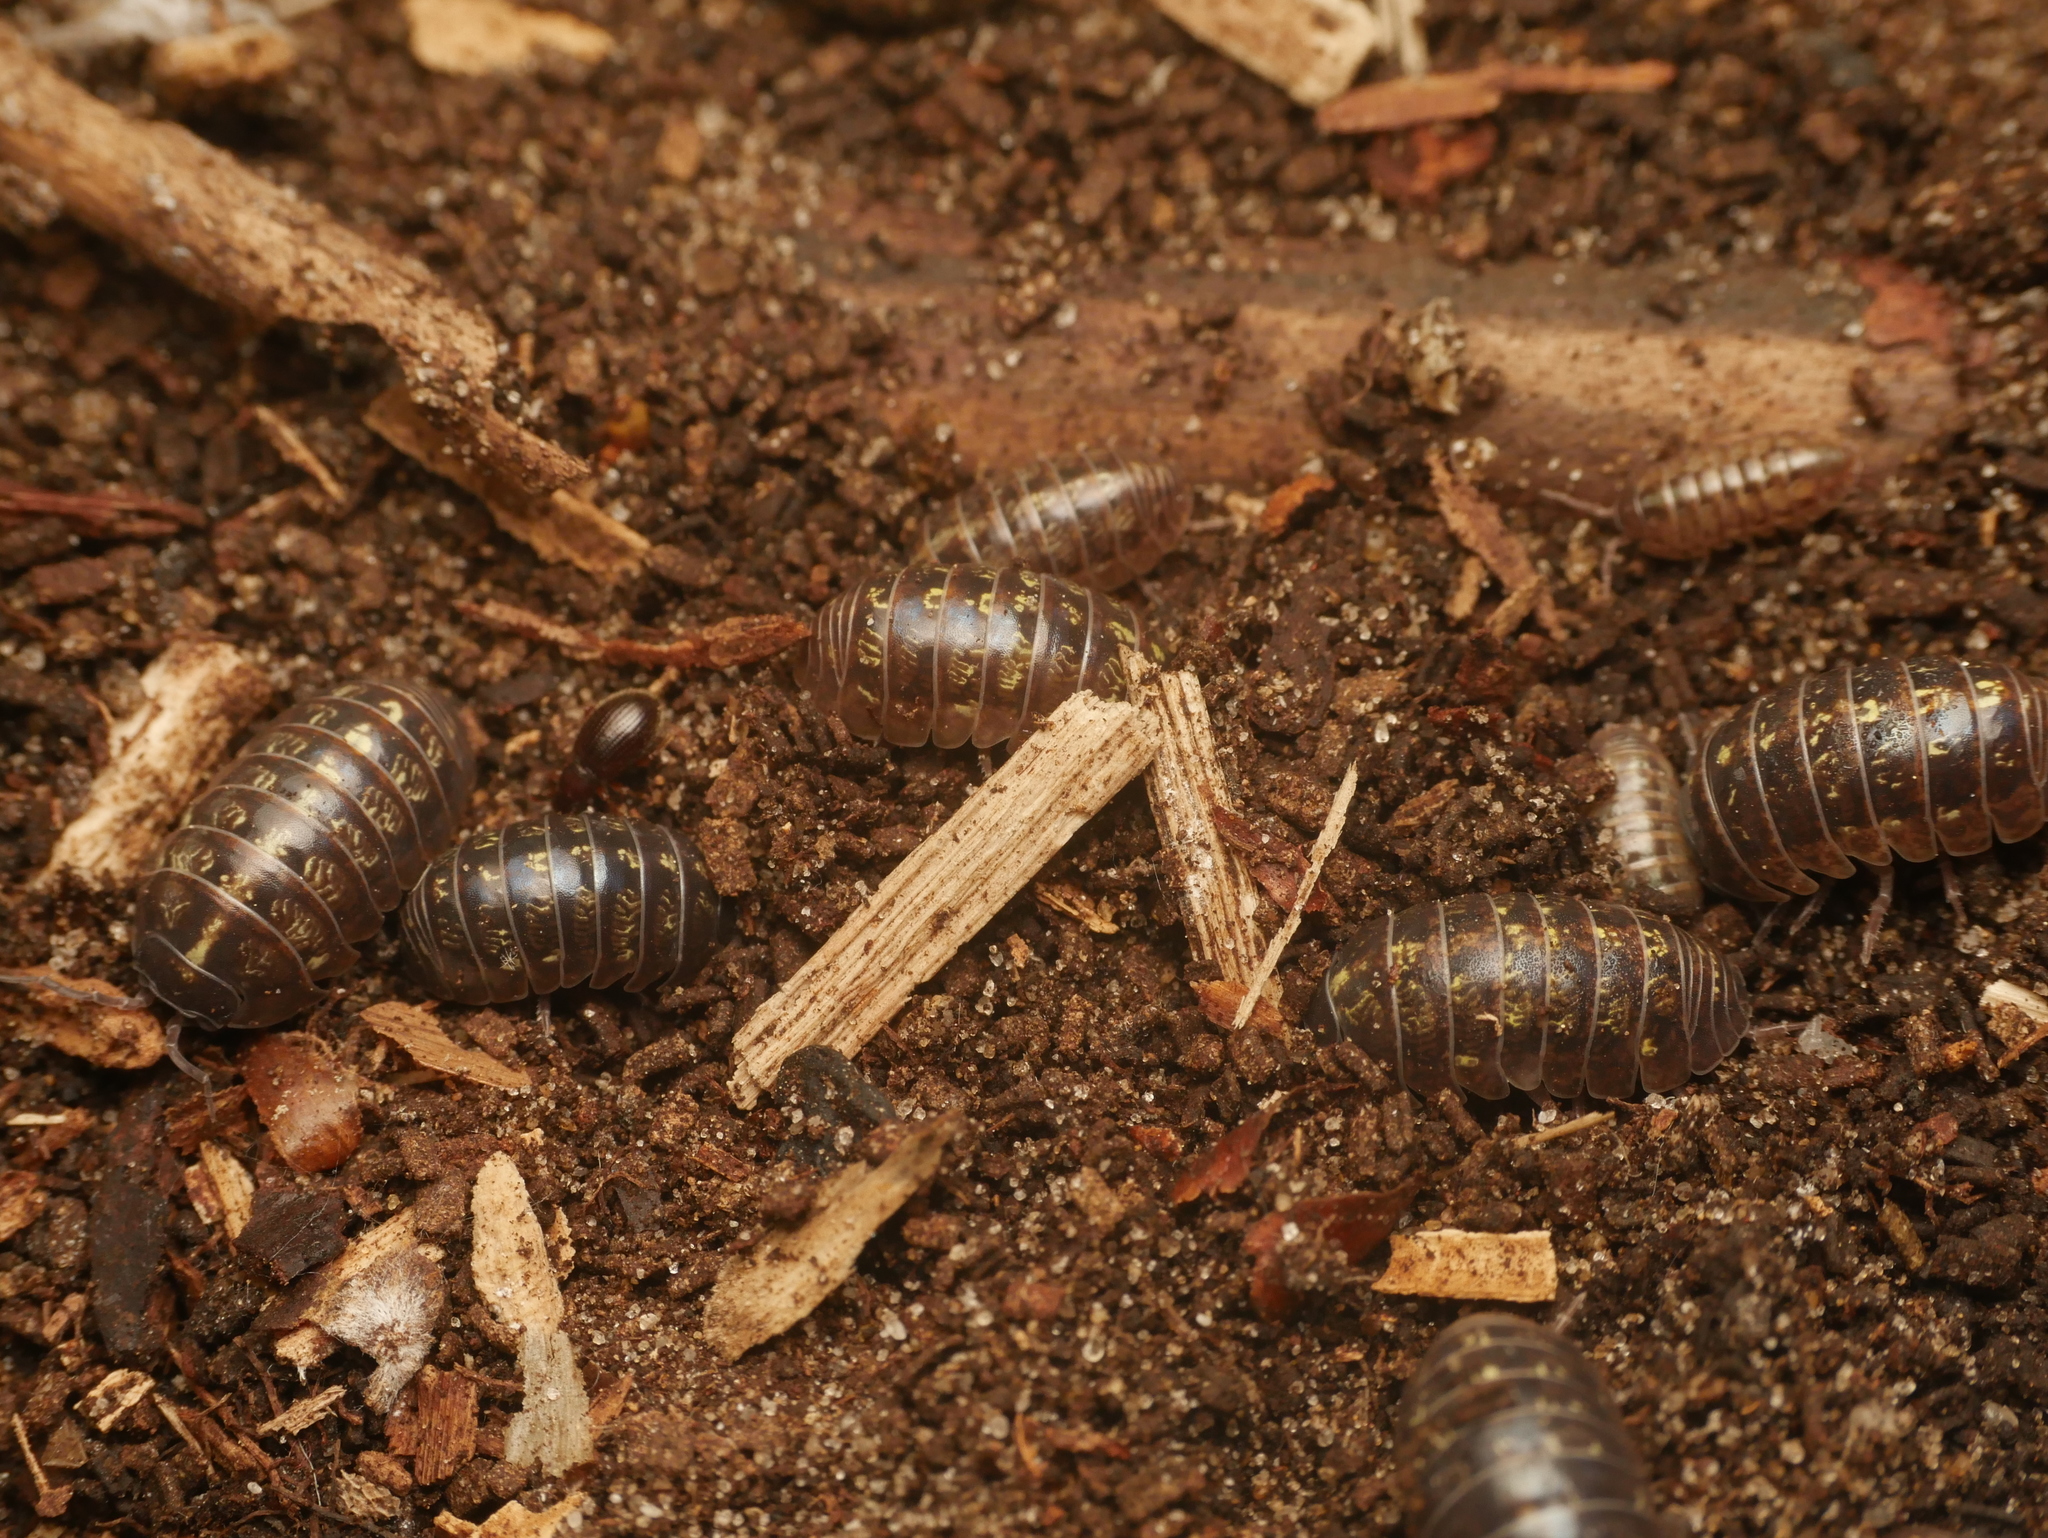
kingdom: Animalia
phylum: Arthropoda
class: Malacostraca
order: Isopoda
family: Armadillidiidae
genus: Armadillidium
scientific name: Armadillidium vulgare
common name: Common pill woodlouse
